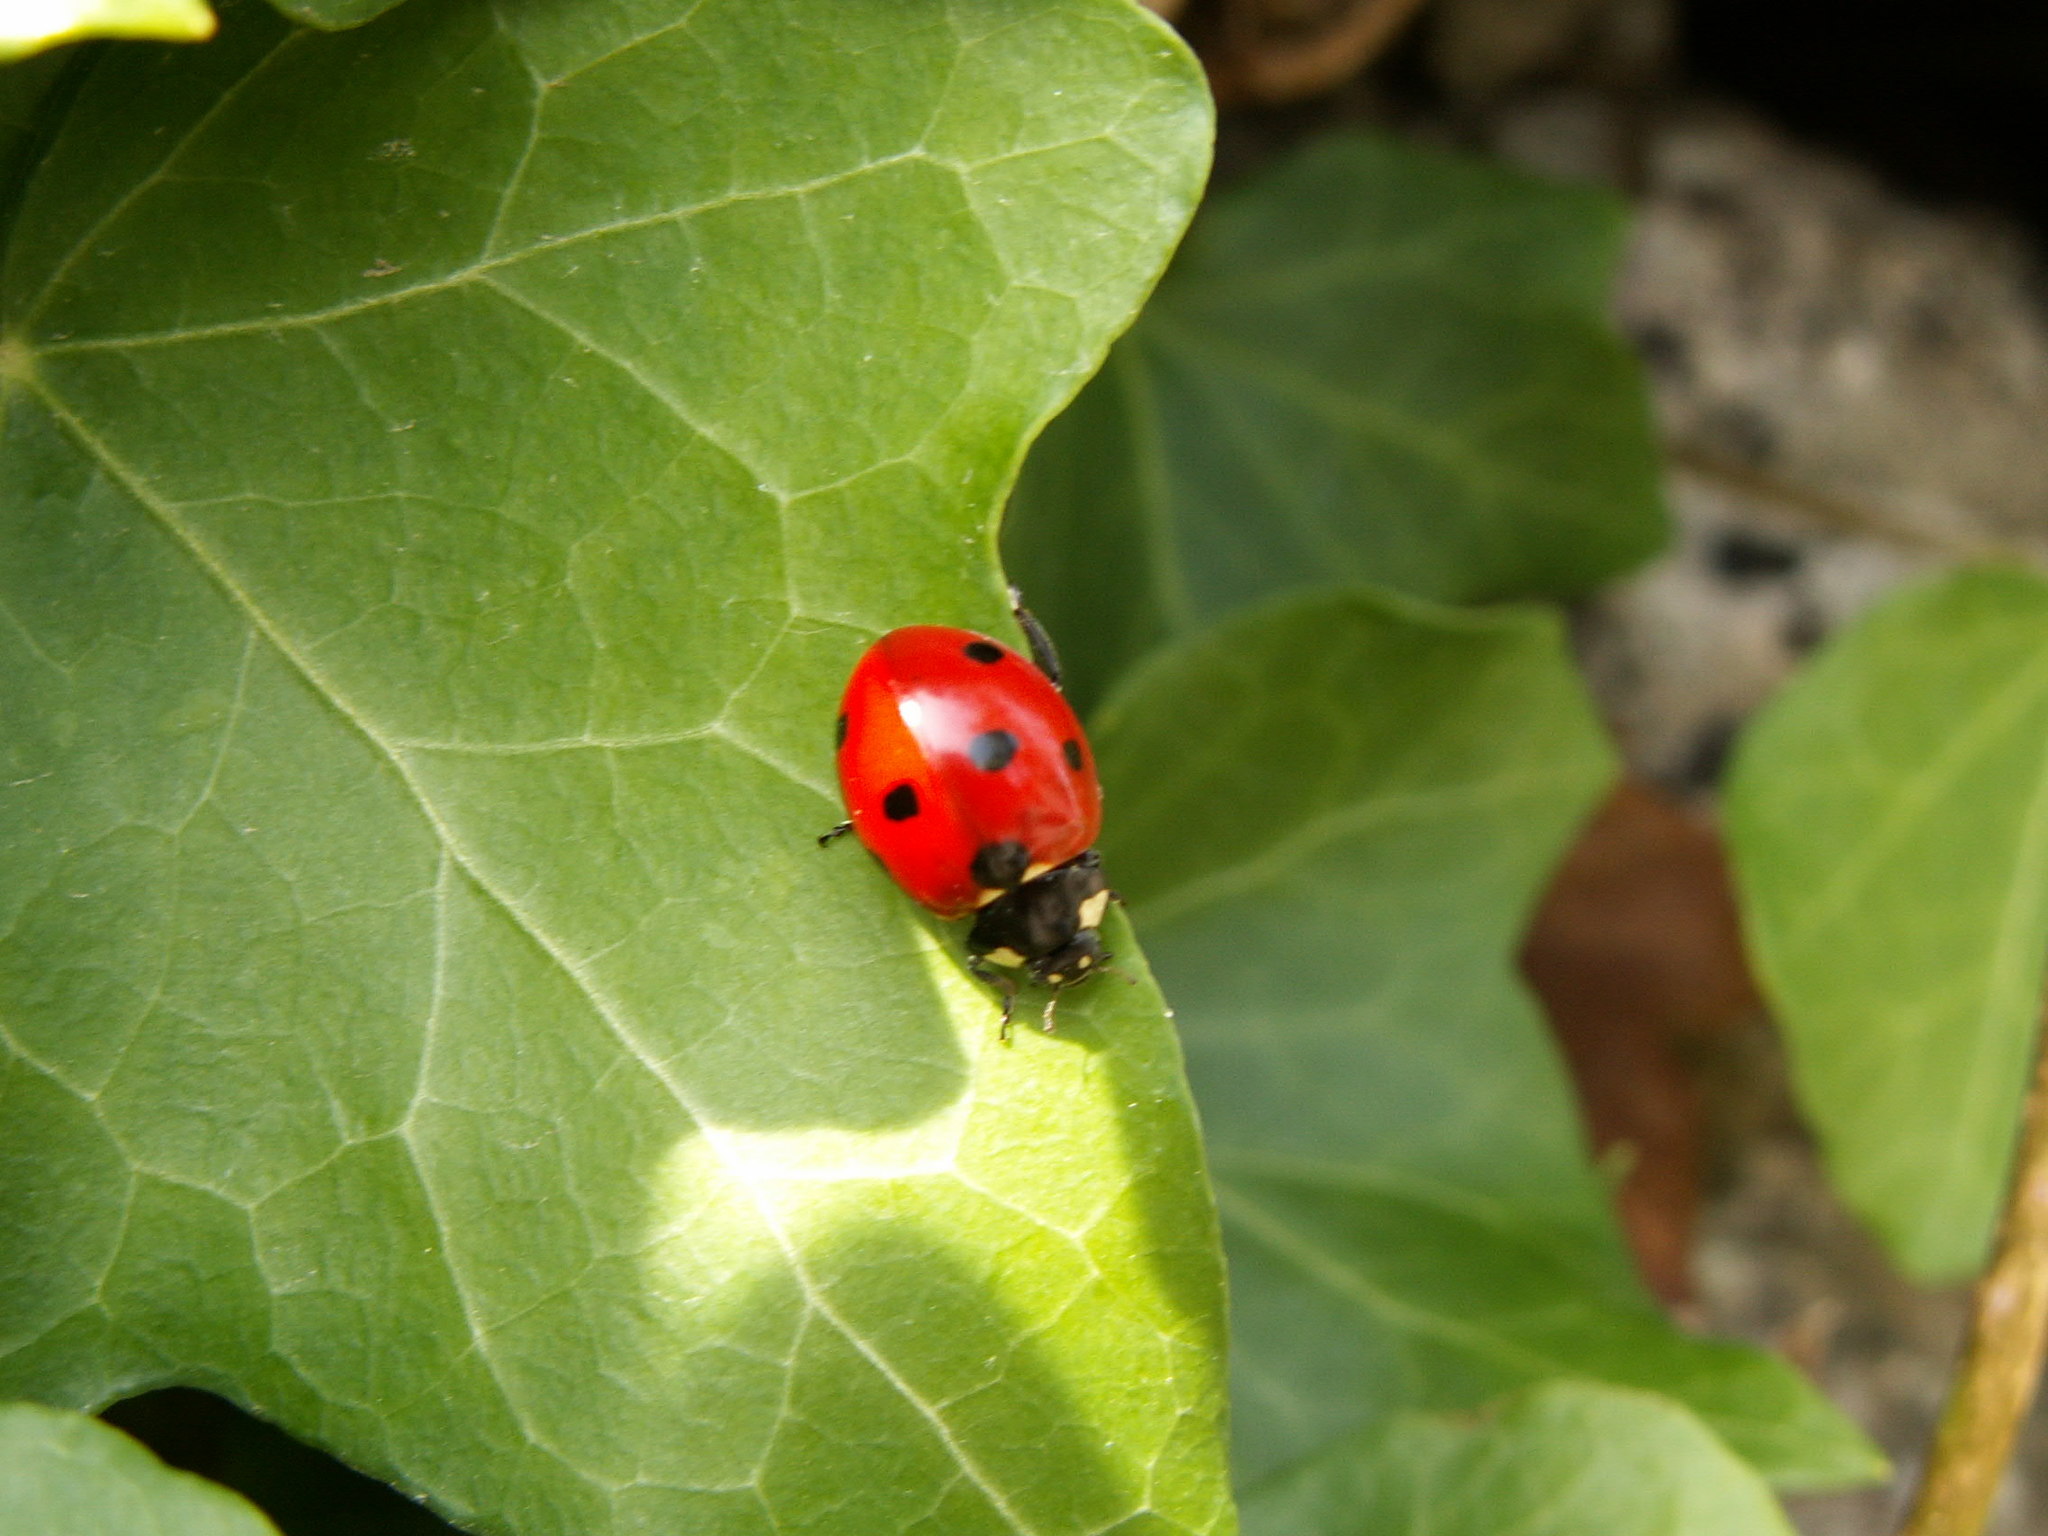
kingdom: Animalia
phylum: Arthropoda
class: Insecta
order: Coleoptera
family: Coccinellidae
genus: Coccinella
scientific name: Coccinella septempunctata
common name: Sevenspotted lady beetle
